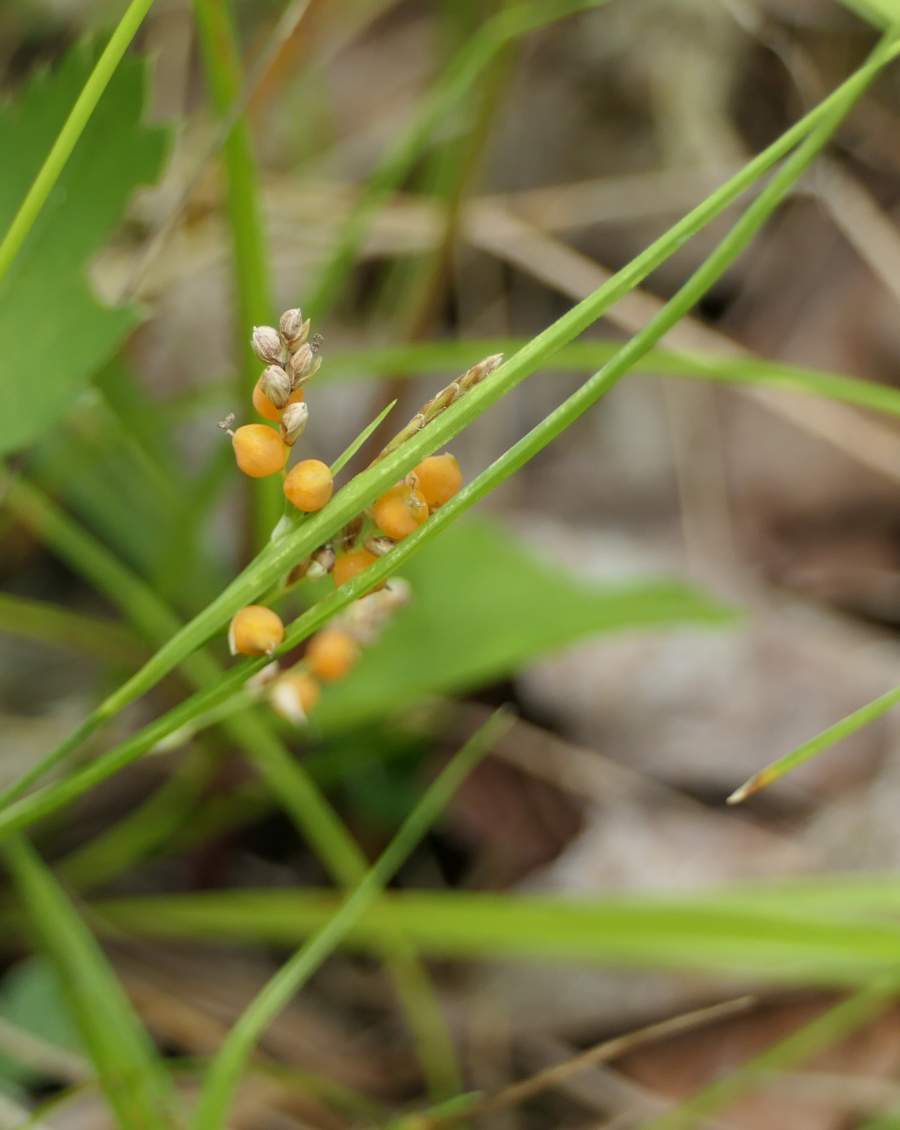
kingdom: Plantae
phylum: Tracheophyta
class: Liliopsida
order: Poales
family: Cyperaceae
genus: Carex
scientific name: Carex aurea
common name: Golden sedge
